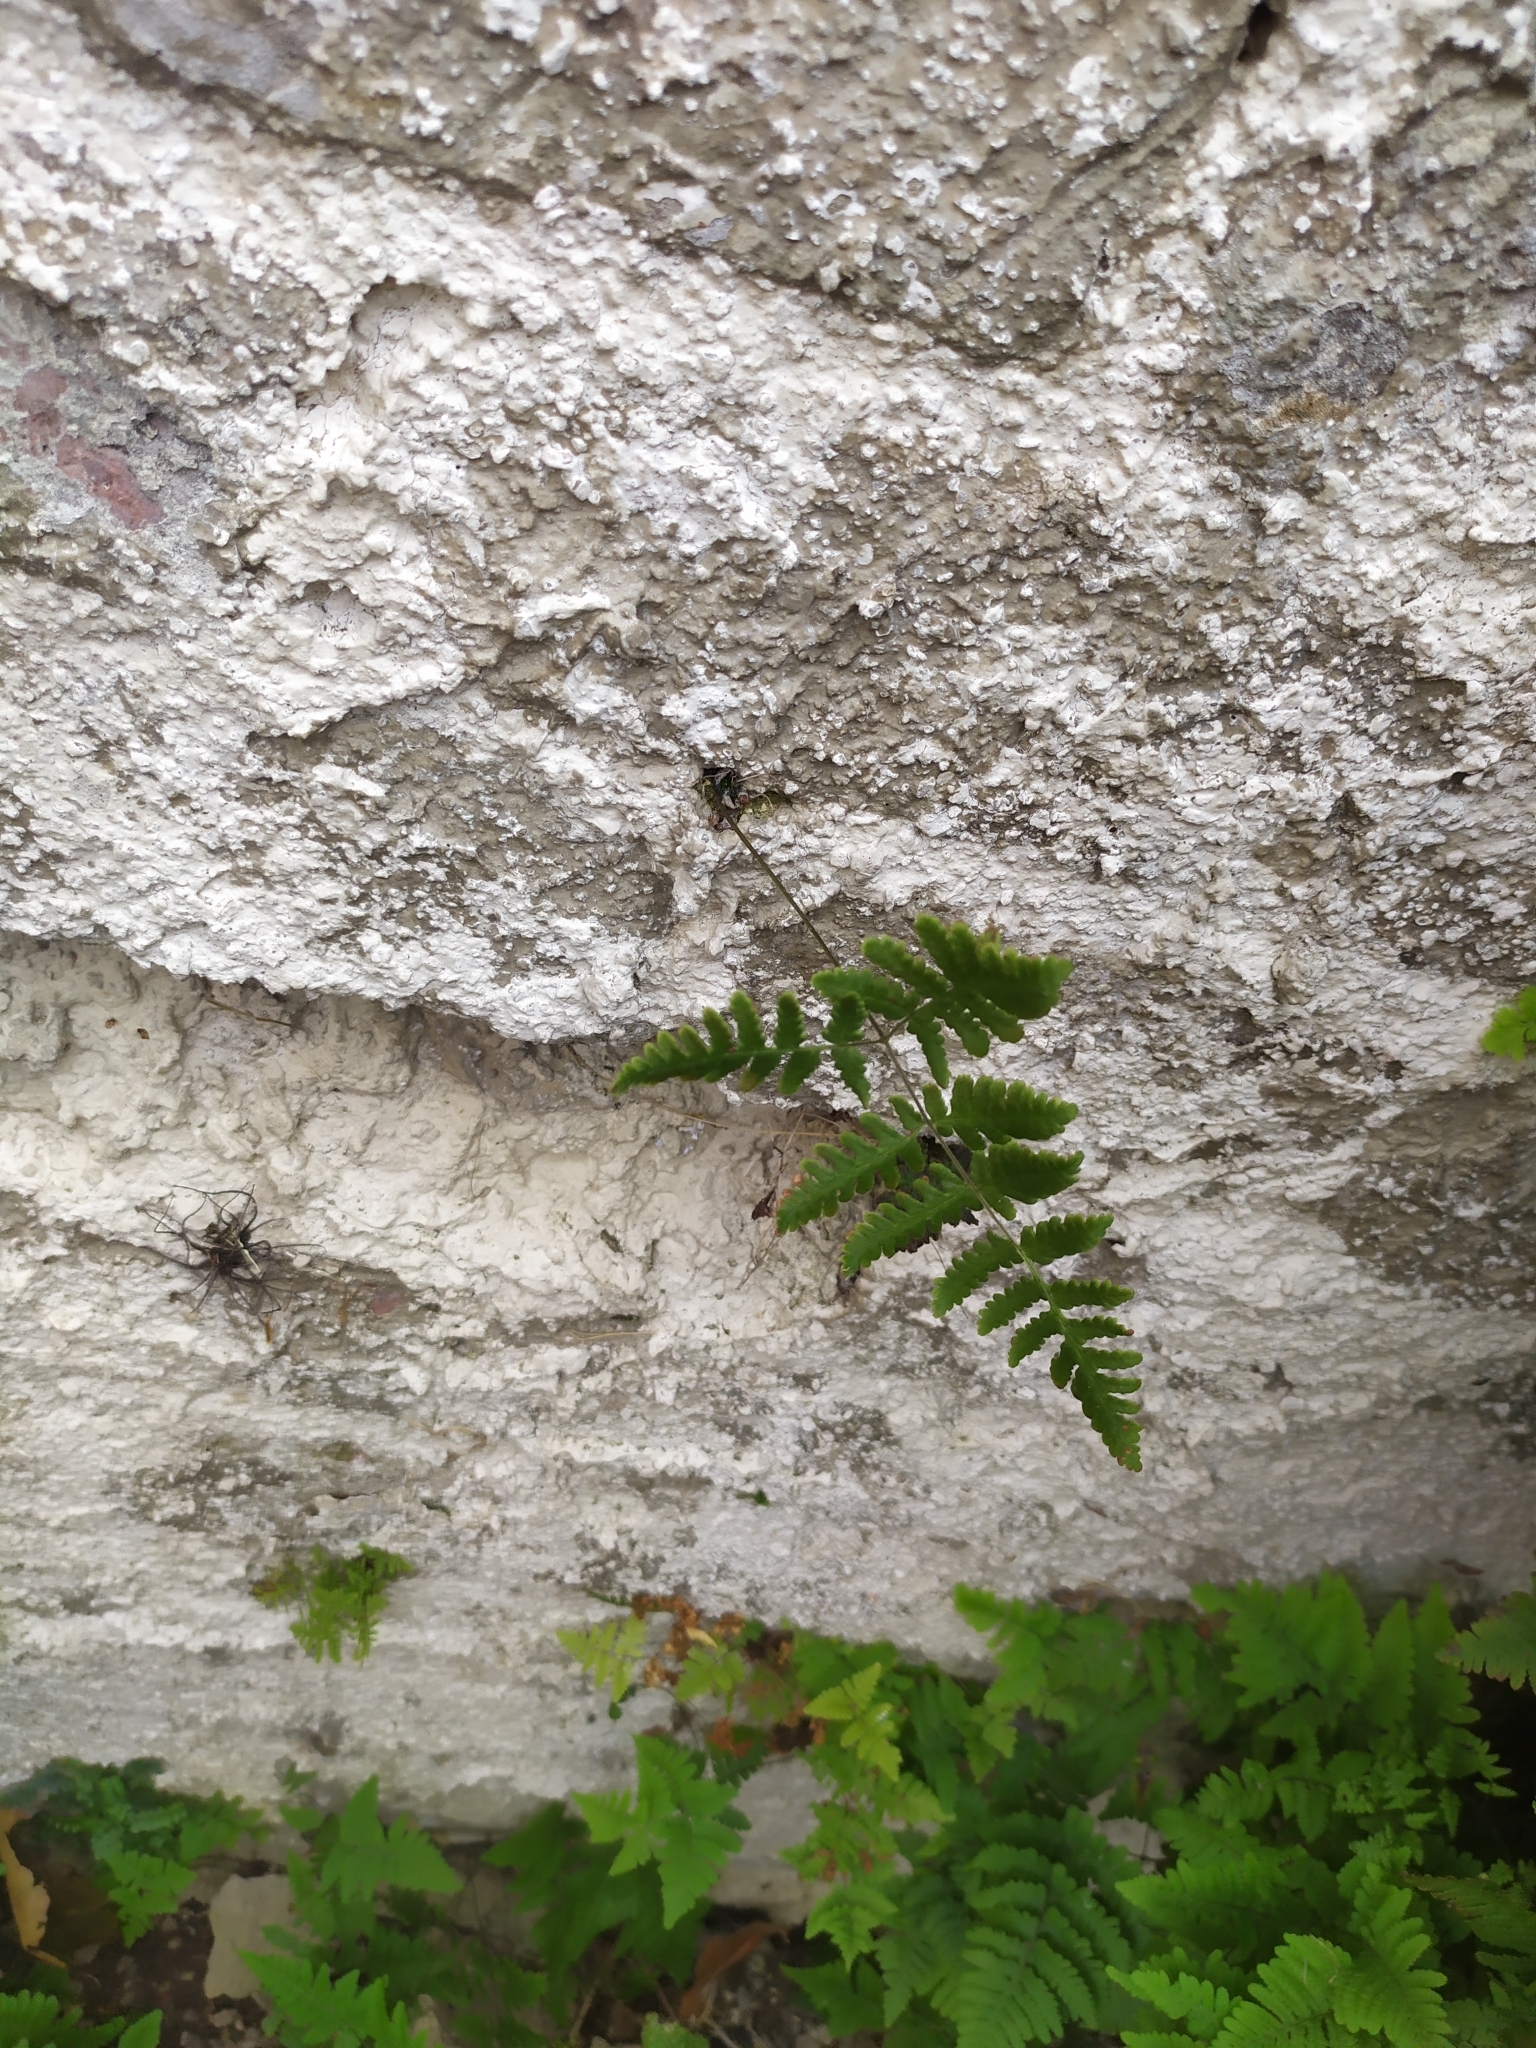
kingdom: Plantae
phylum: Tracheophyta
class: Polypodiopsida
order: Polypodiales
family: Cystopteridaceae
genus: Gymnocarpium
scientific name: Gymnocarpium robertianum
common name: Limestone fern
